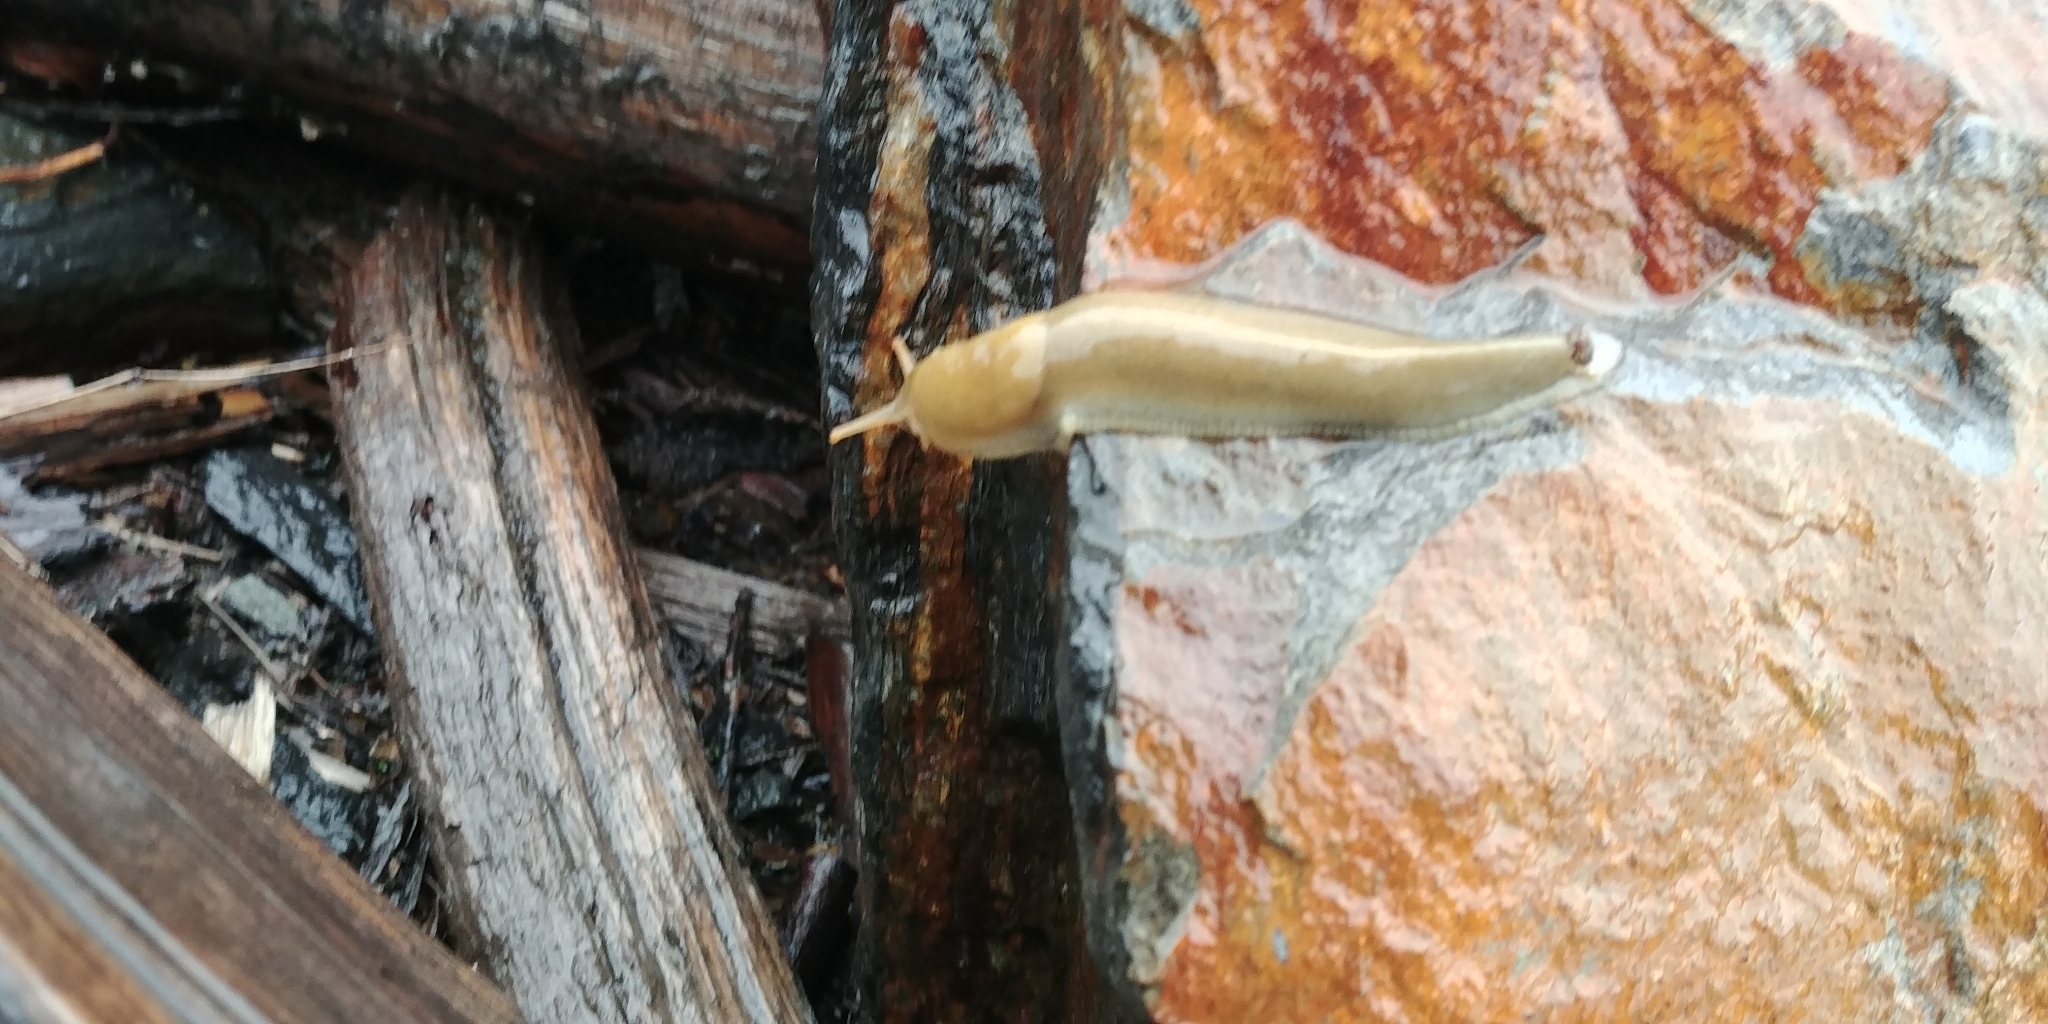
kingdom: Animalia
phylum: Mollusca
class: Gastropoda
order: Stylommatophora
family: Ariolimacidae
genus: Ariolimax
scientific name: Ariolimax columbianus
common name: Pacific banana slug
